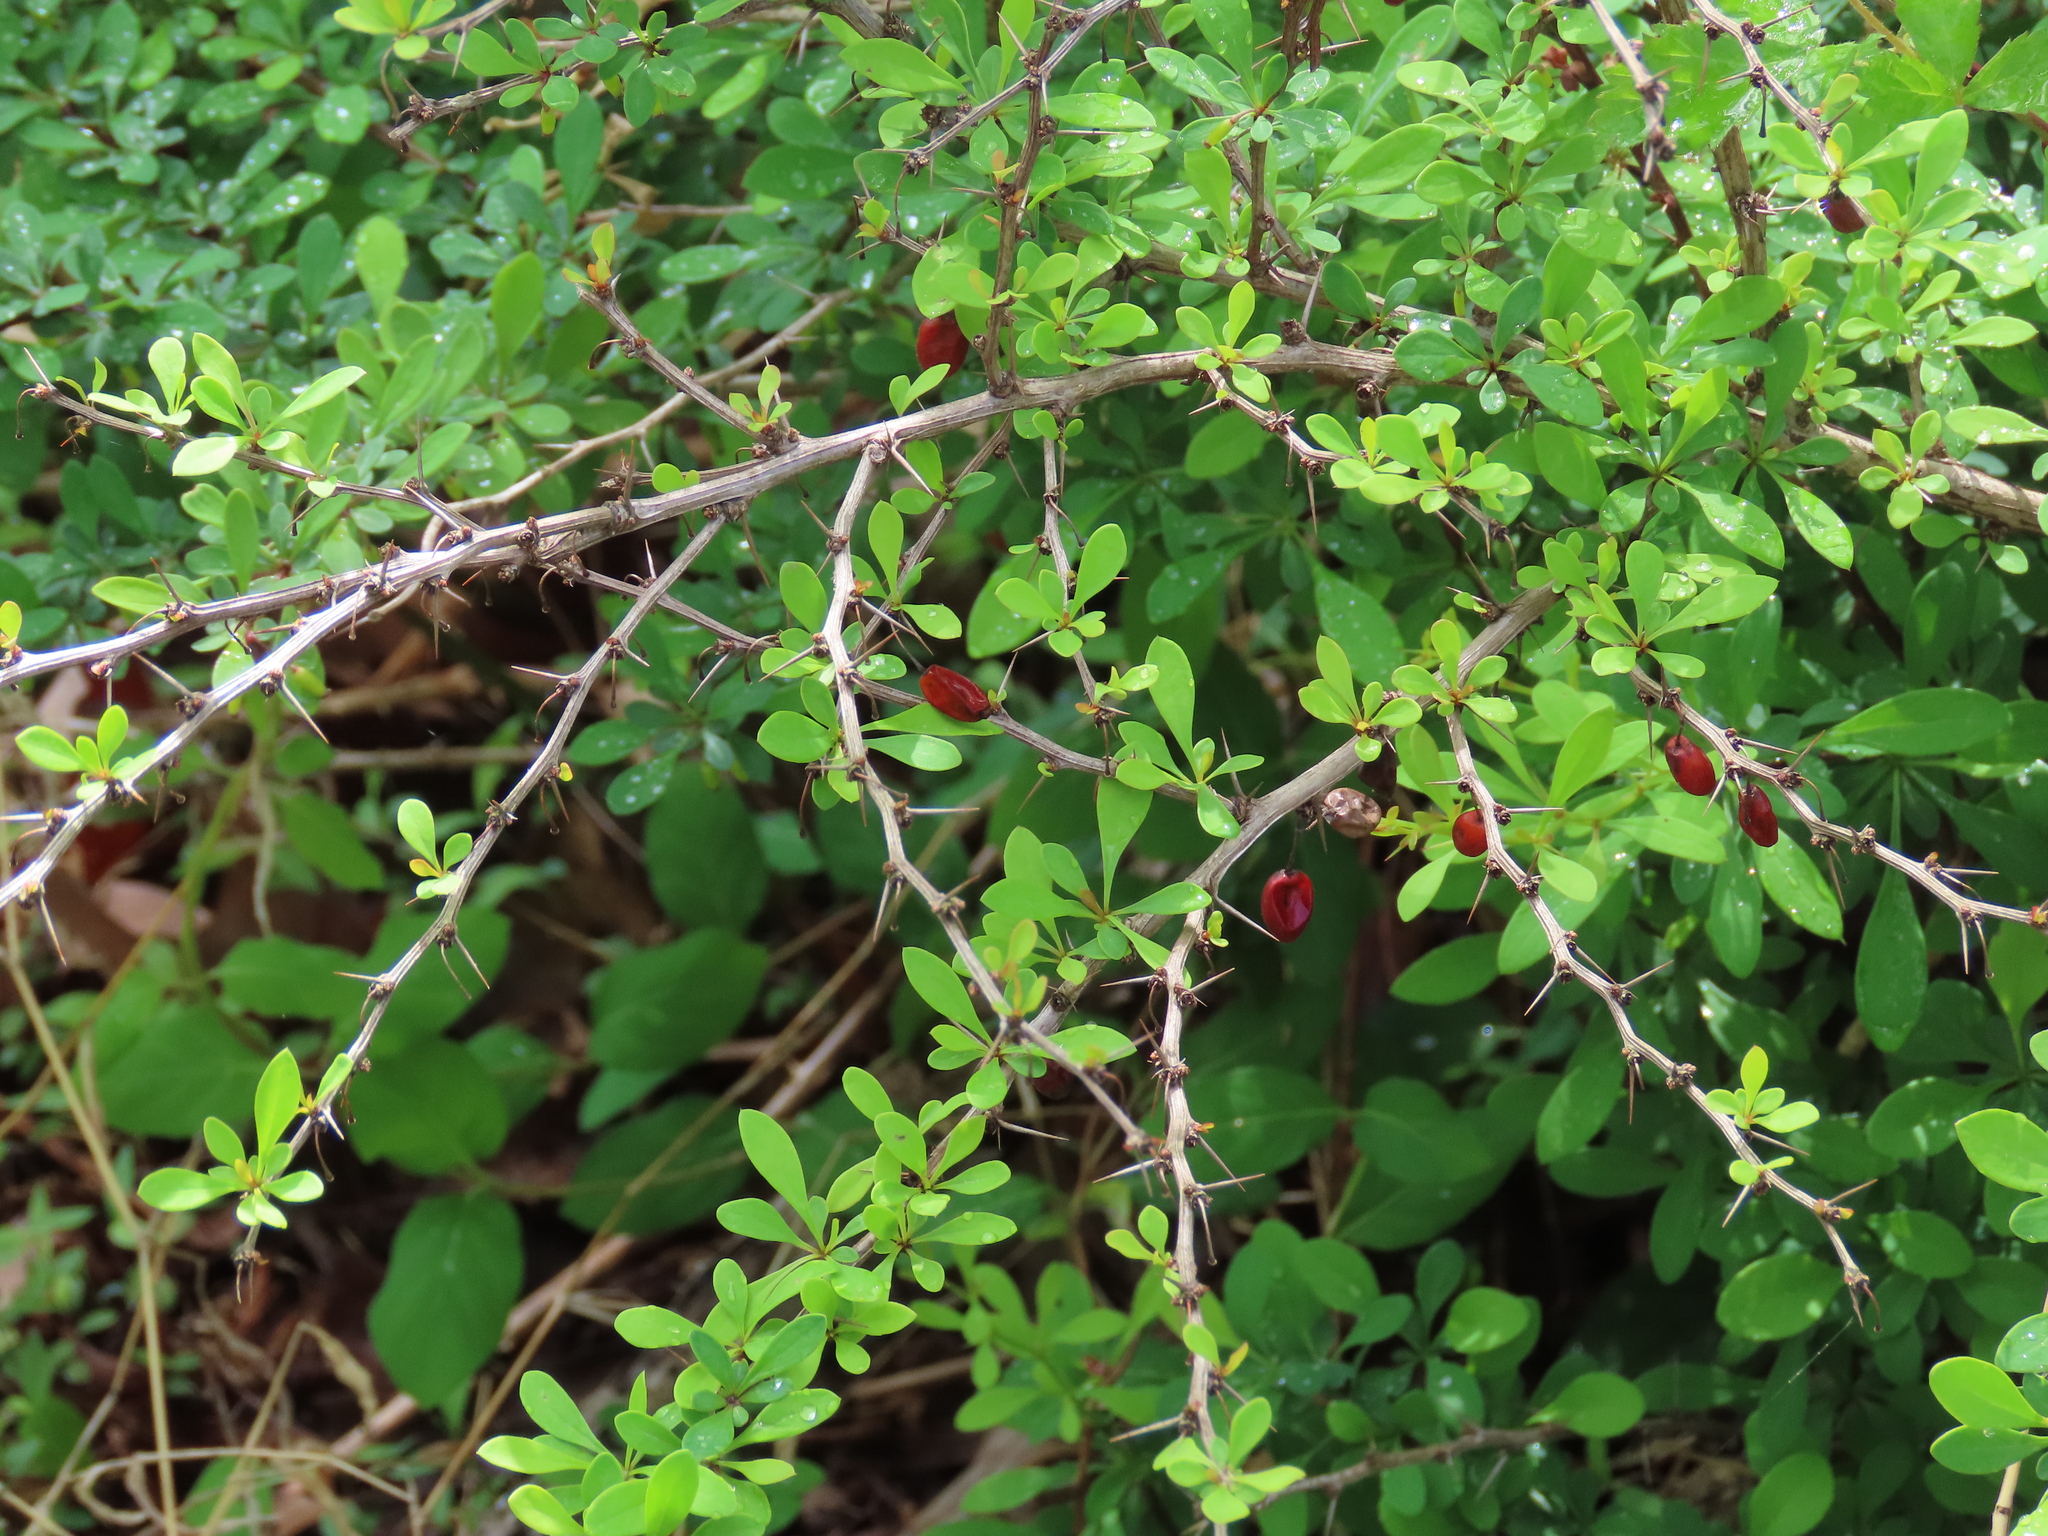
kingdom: Plantae
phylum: Tracheophyta
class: Magnoliopsida
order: Ranunculales
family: Berberidaceae
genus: Berberis
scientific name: Berberis thunbergii
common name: Japanese barberry
